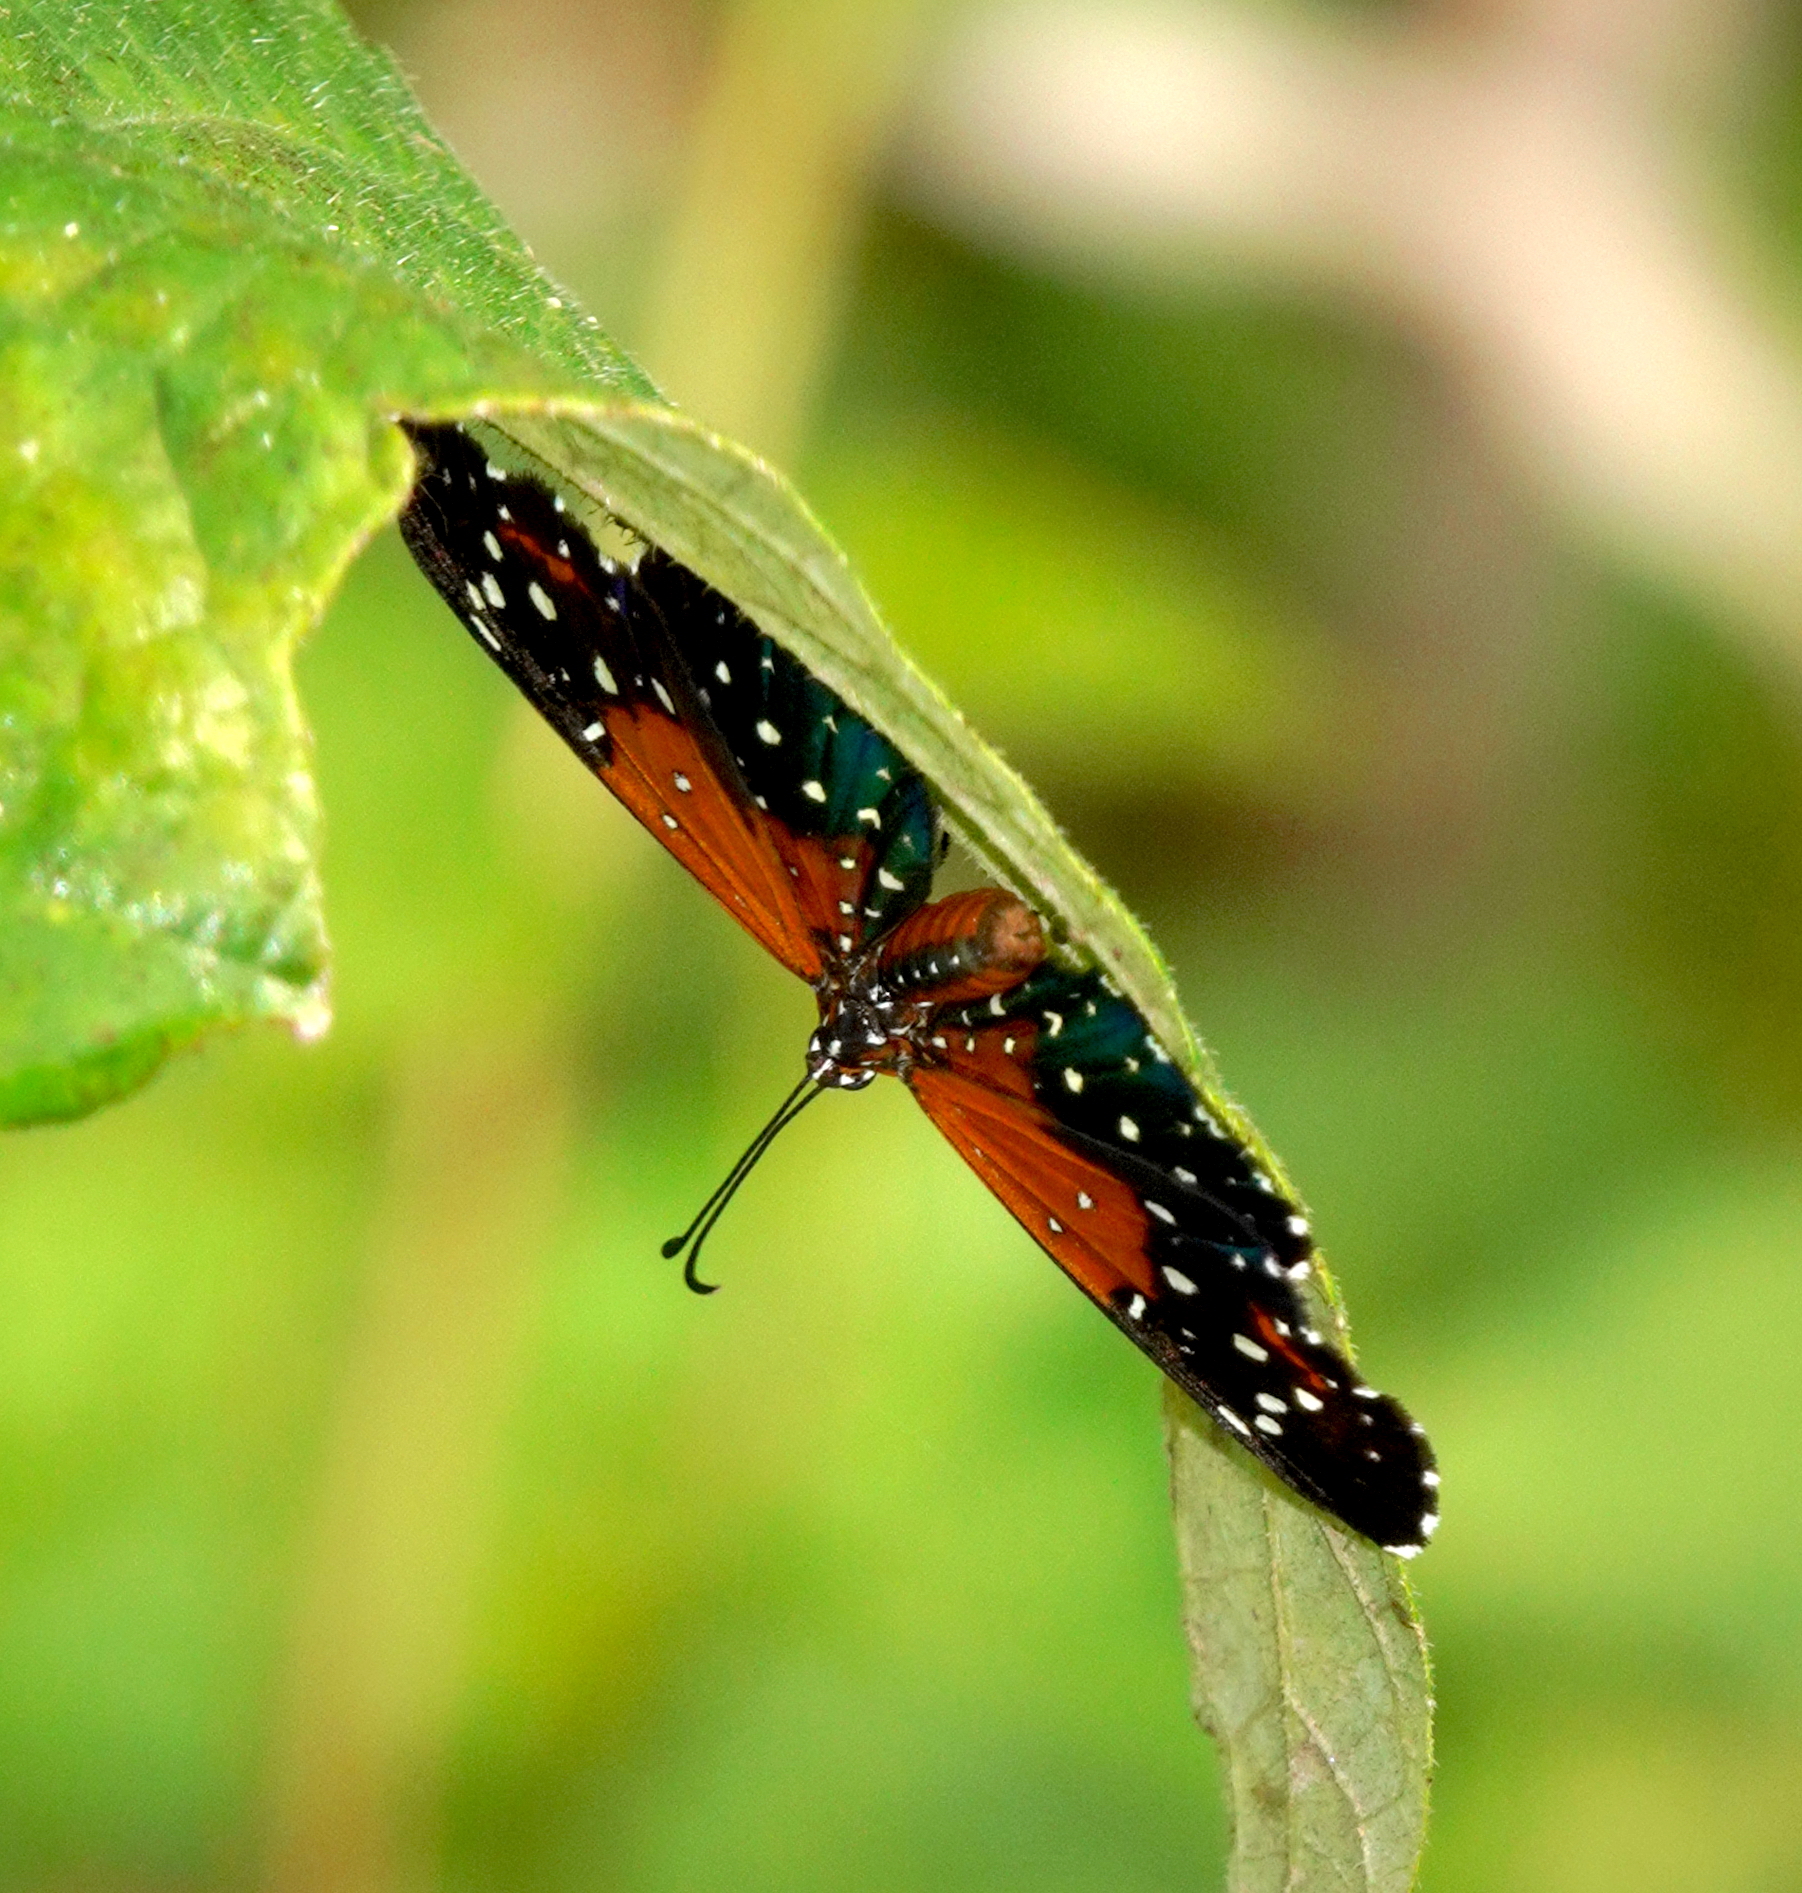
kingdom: Animalia
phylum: Arthropoda
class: Insecta
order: Lepidoptera
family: Riodinidae
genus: Stalachtis
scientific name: Stalachtis phlegia
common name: Dotted prince
